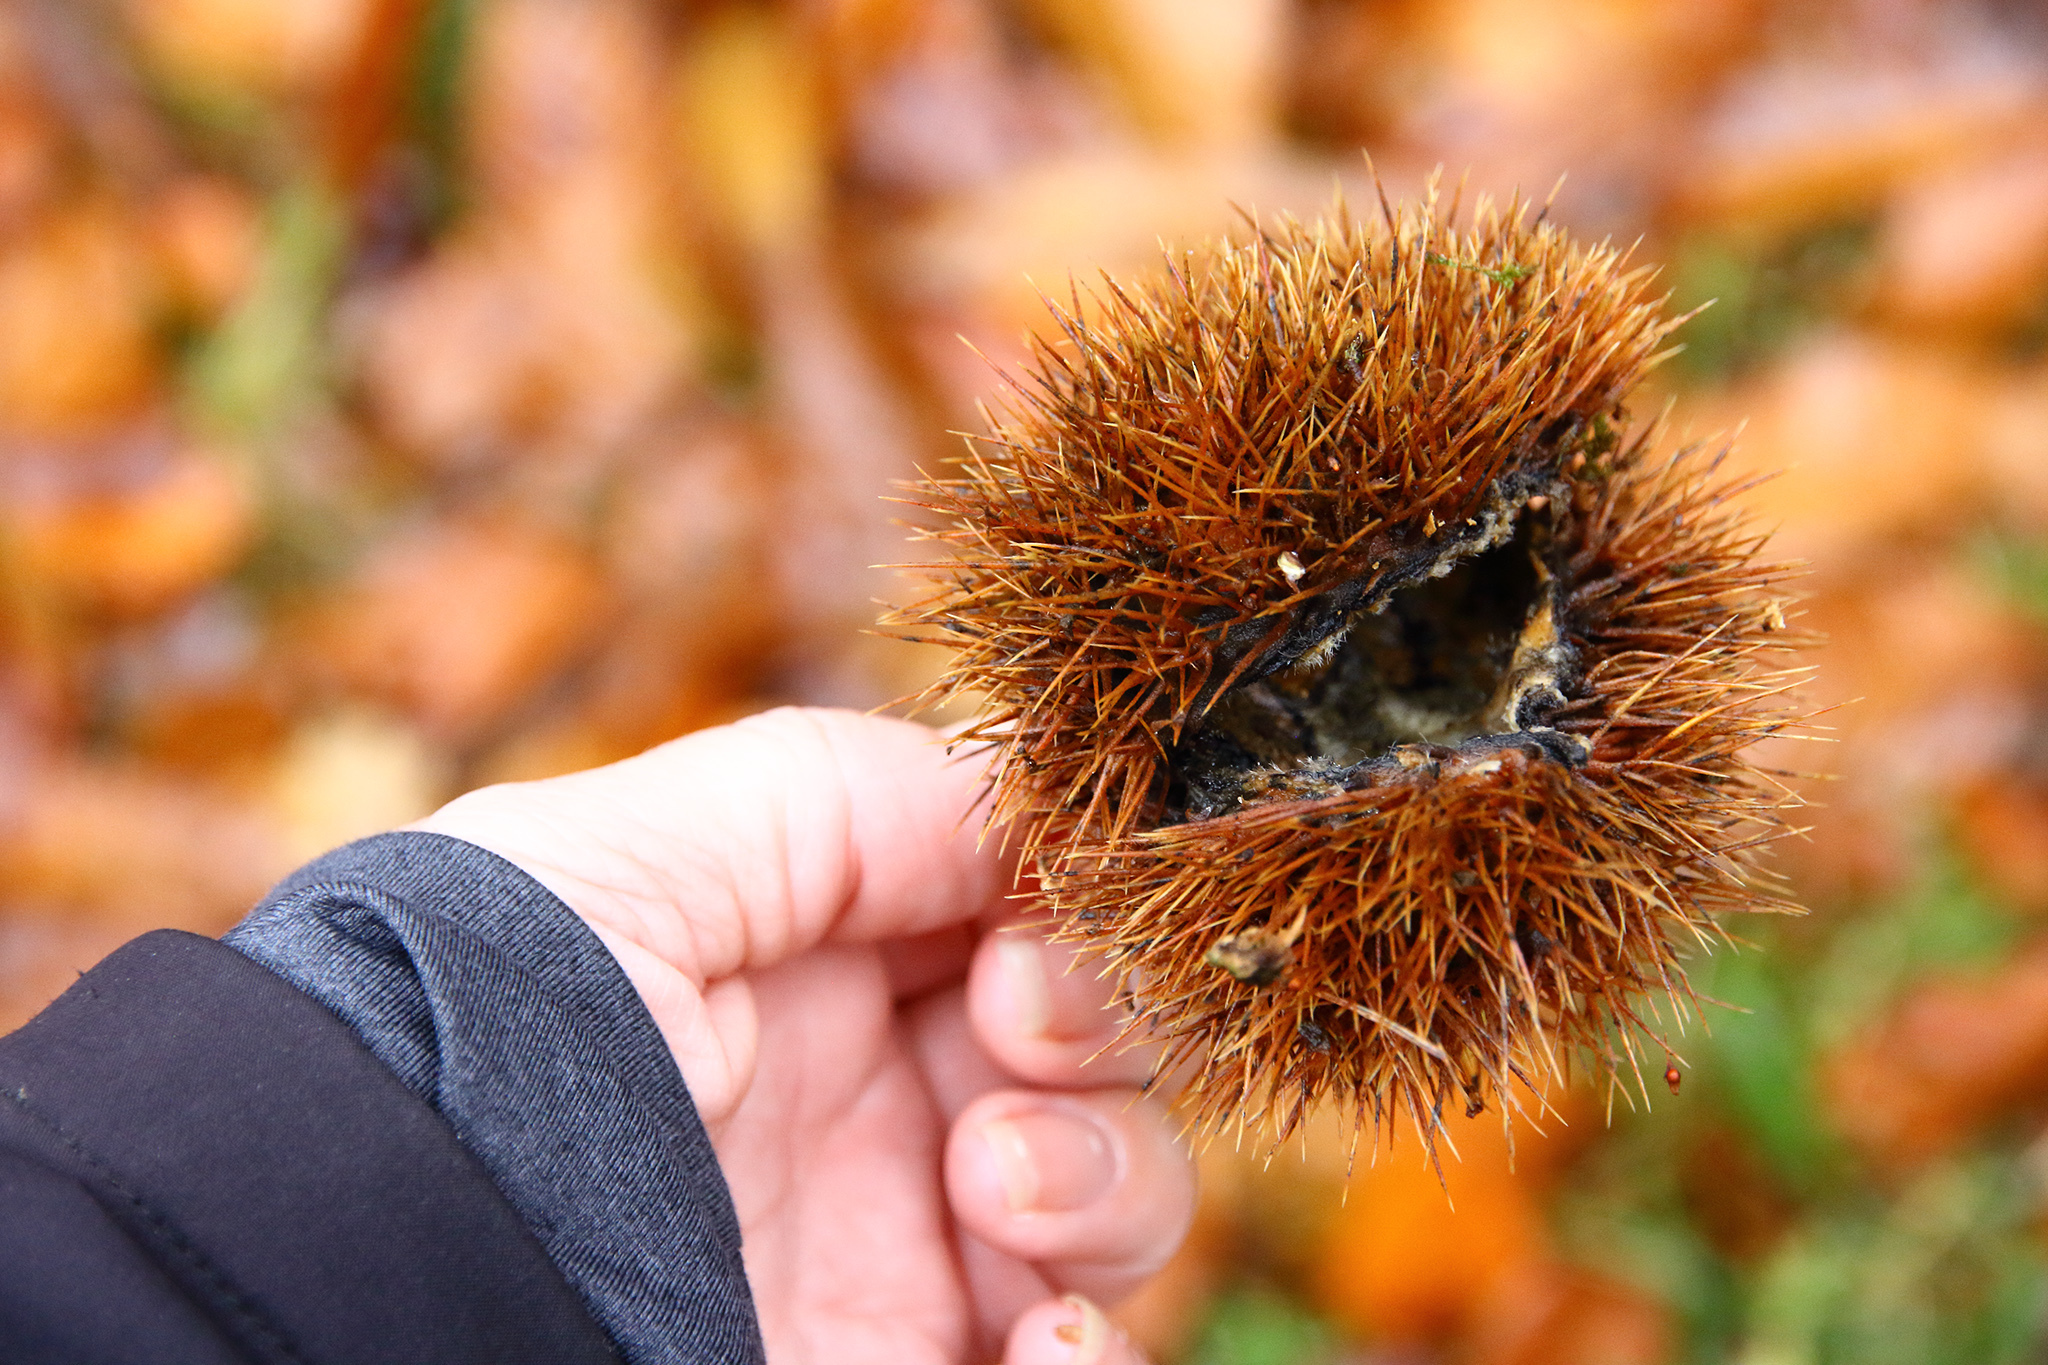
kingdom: Plantae
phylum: Tracheophyta
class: Magnoliopsida
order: Fagales
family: Fagaceae
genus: Castanea
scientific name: Castanea sativa
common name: Sweet chestnut
